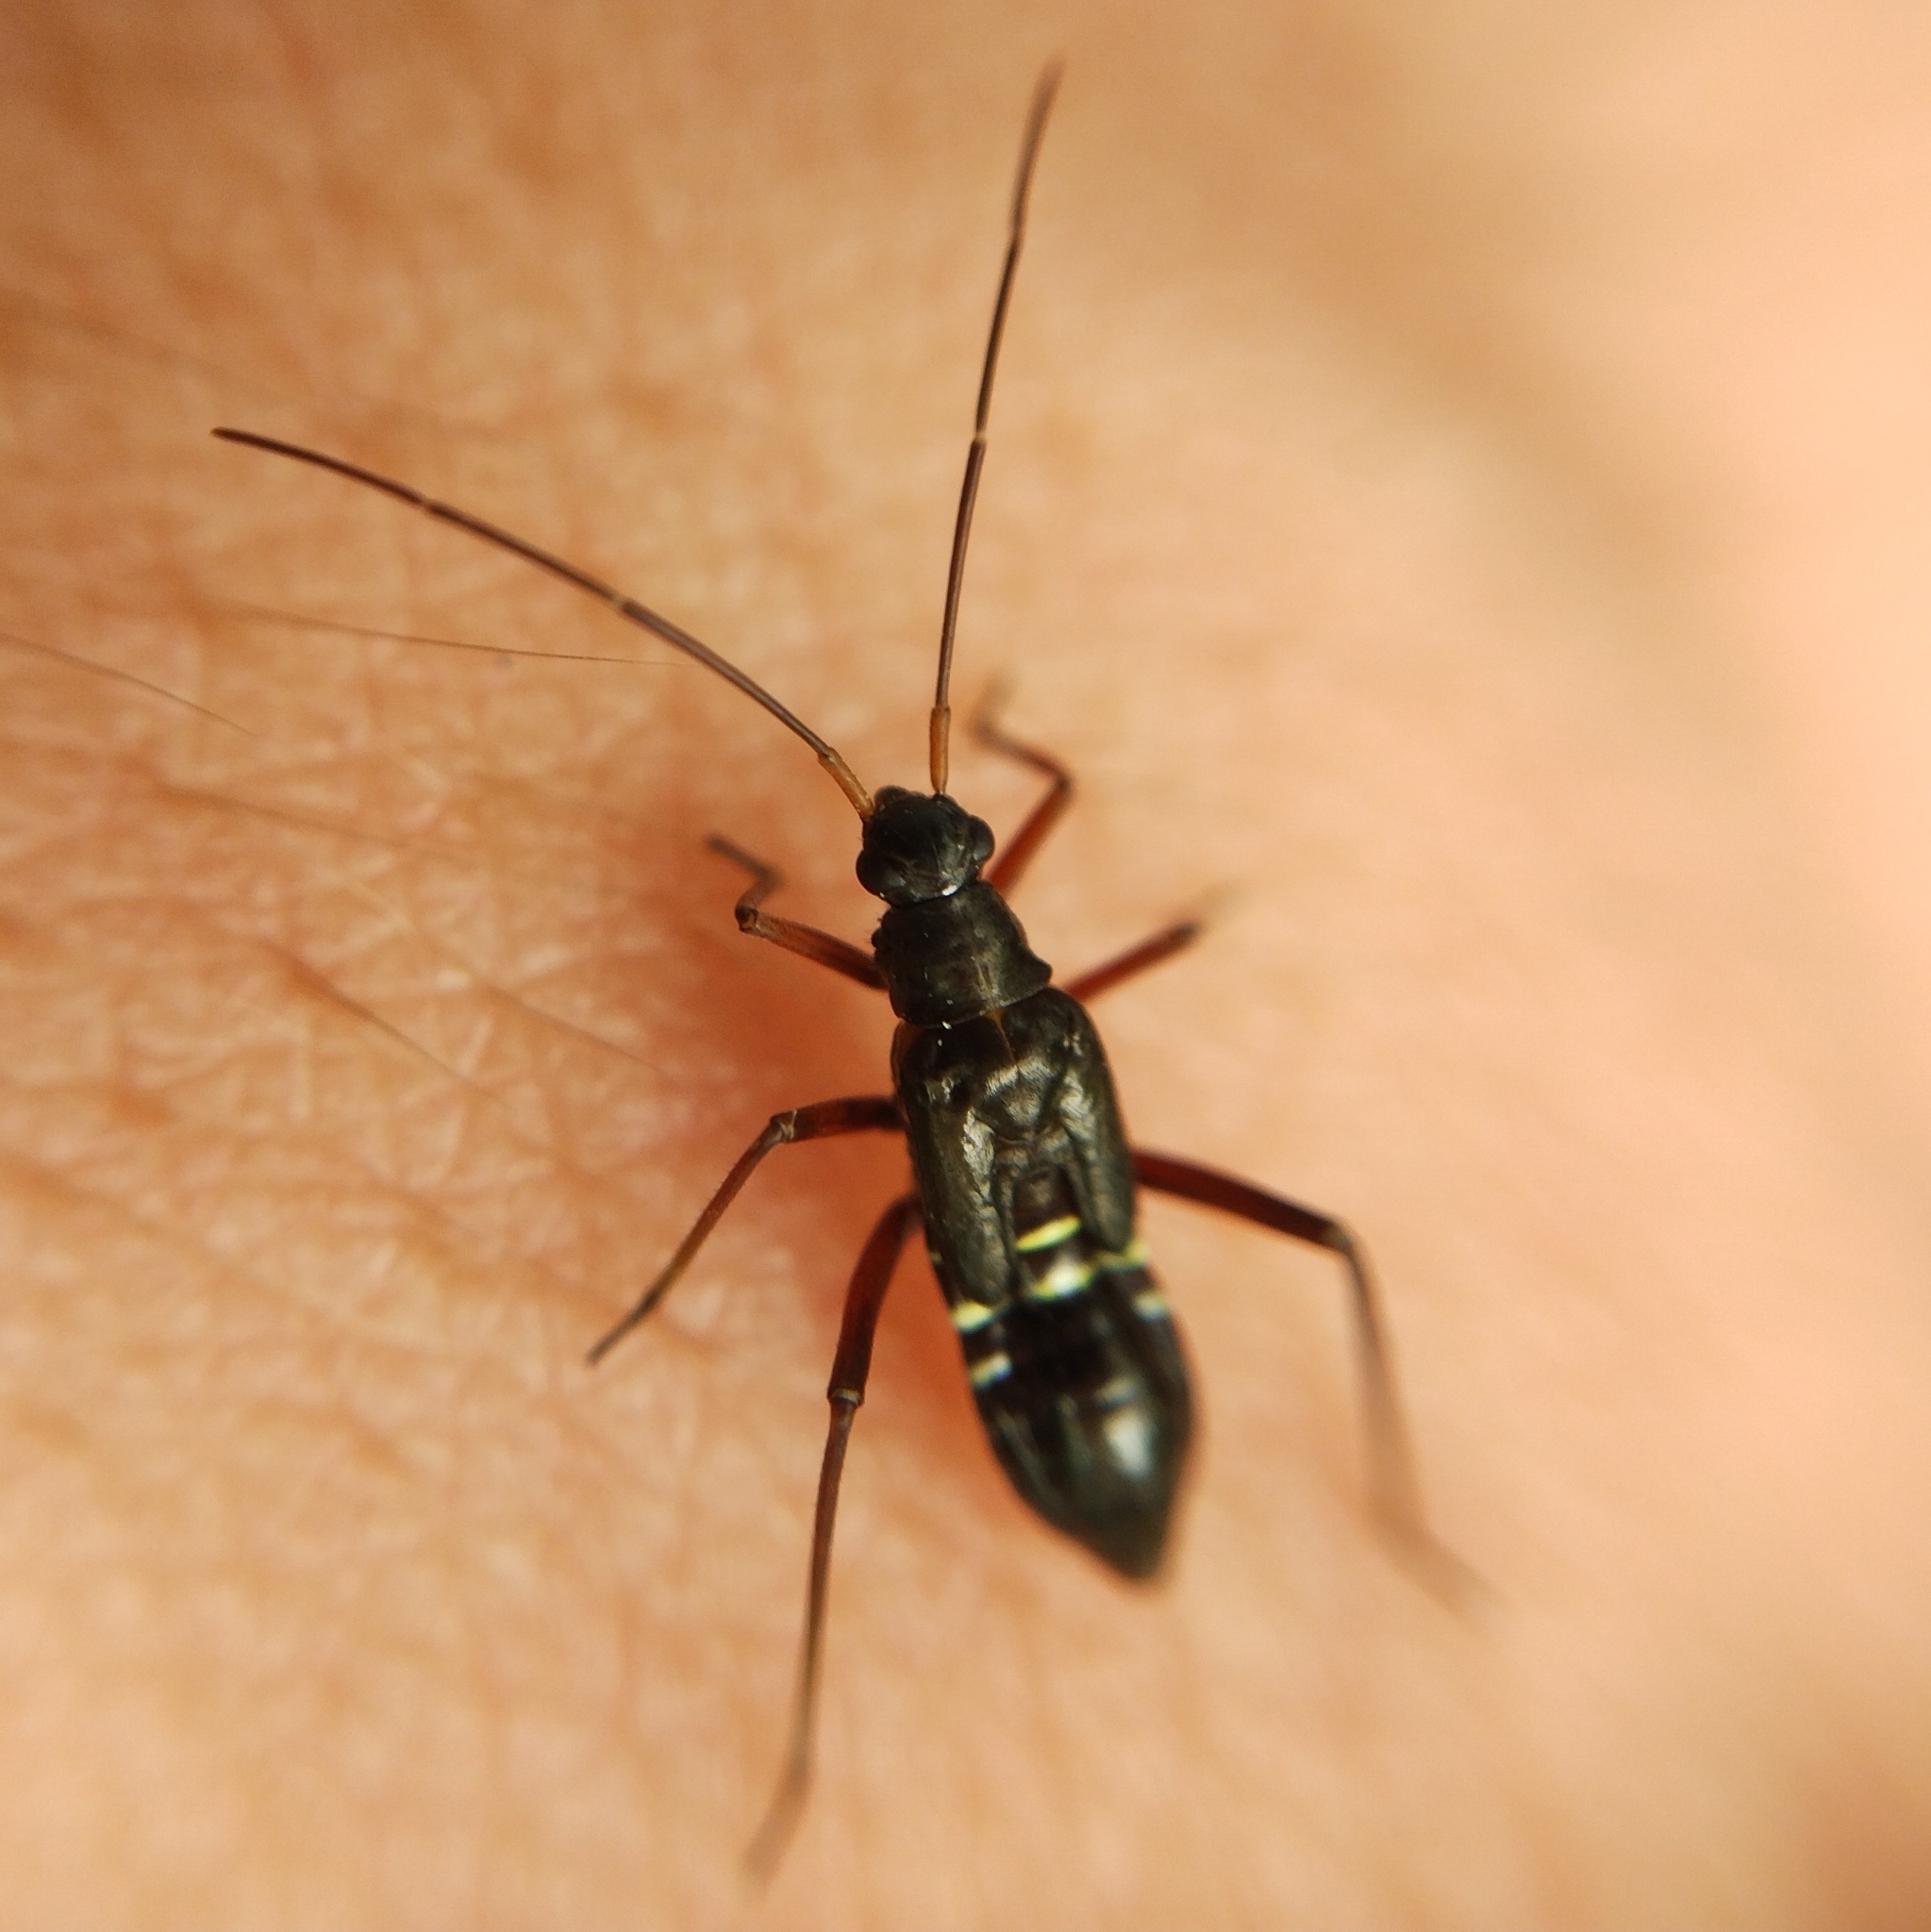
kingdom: Animalia
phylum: Arthropoda
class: Insecta
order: Hemiptera
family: Miridae
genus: Miris
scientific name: Miris striatus
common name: Fine streaked bugkin
